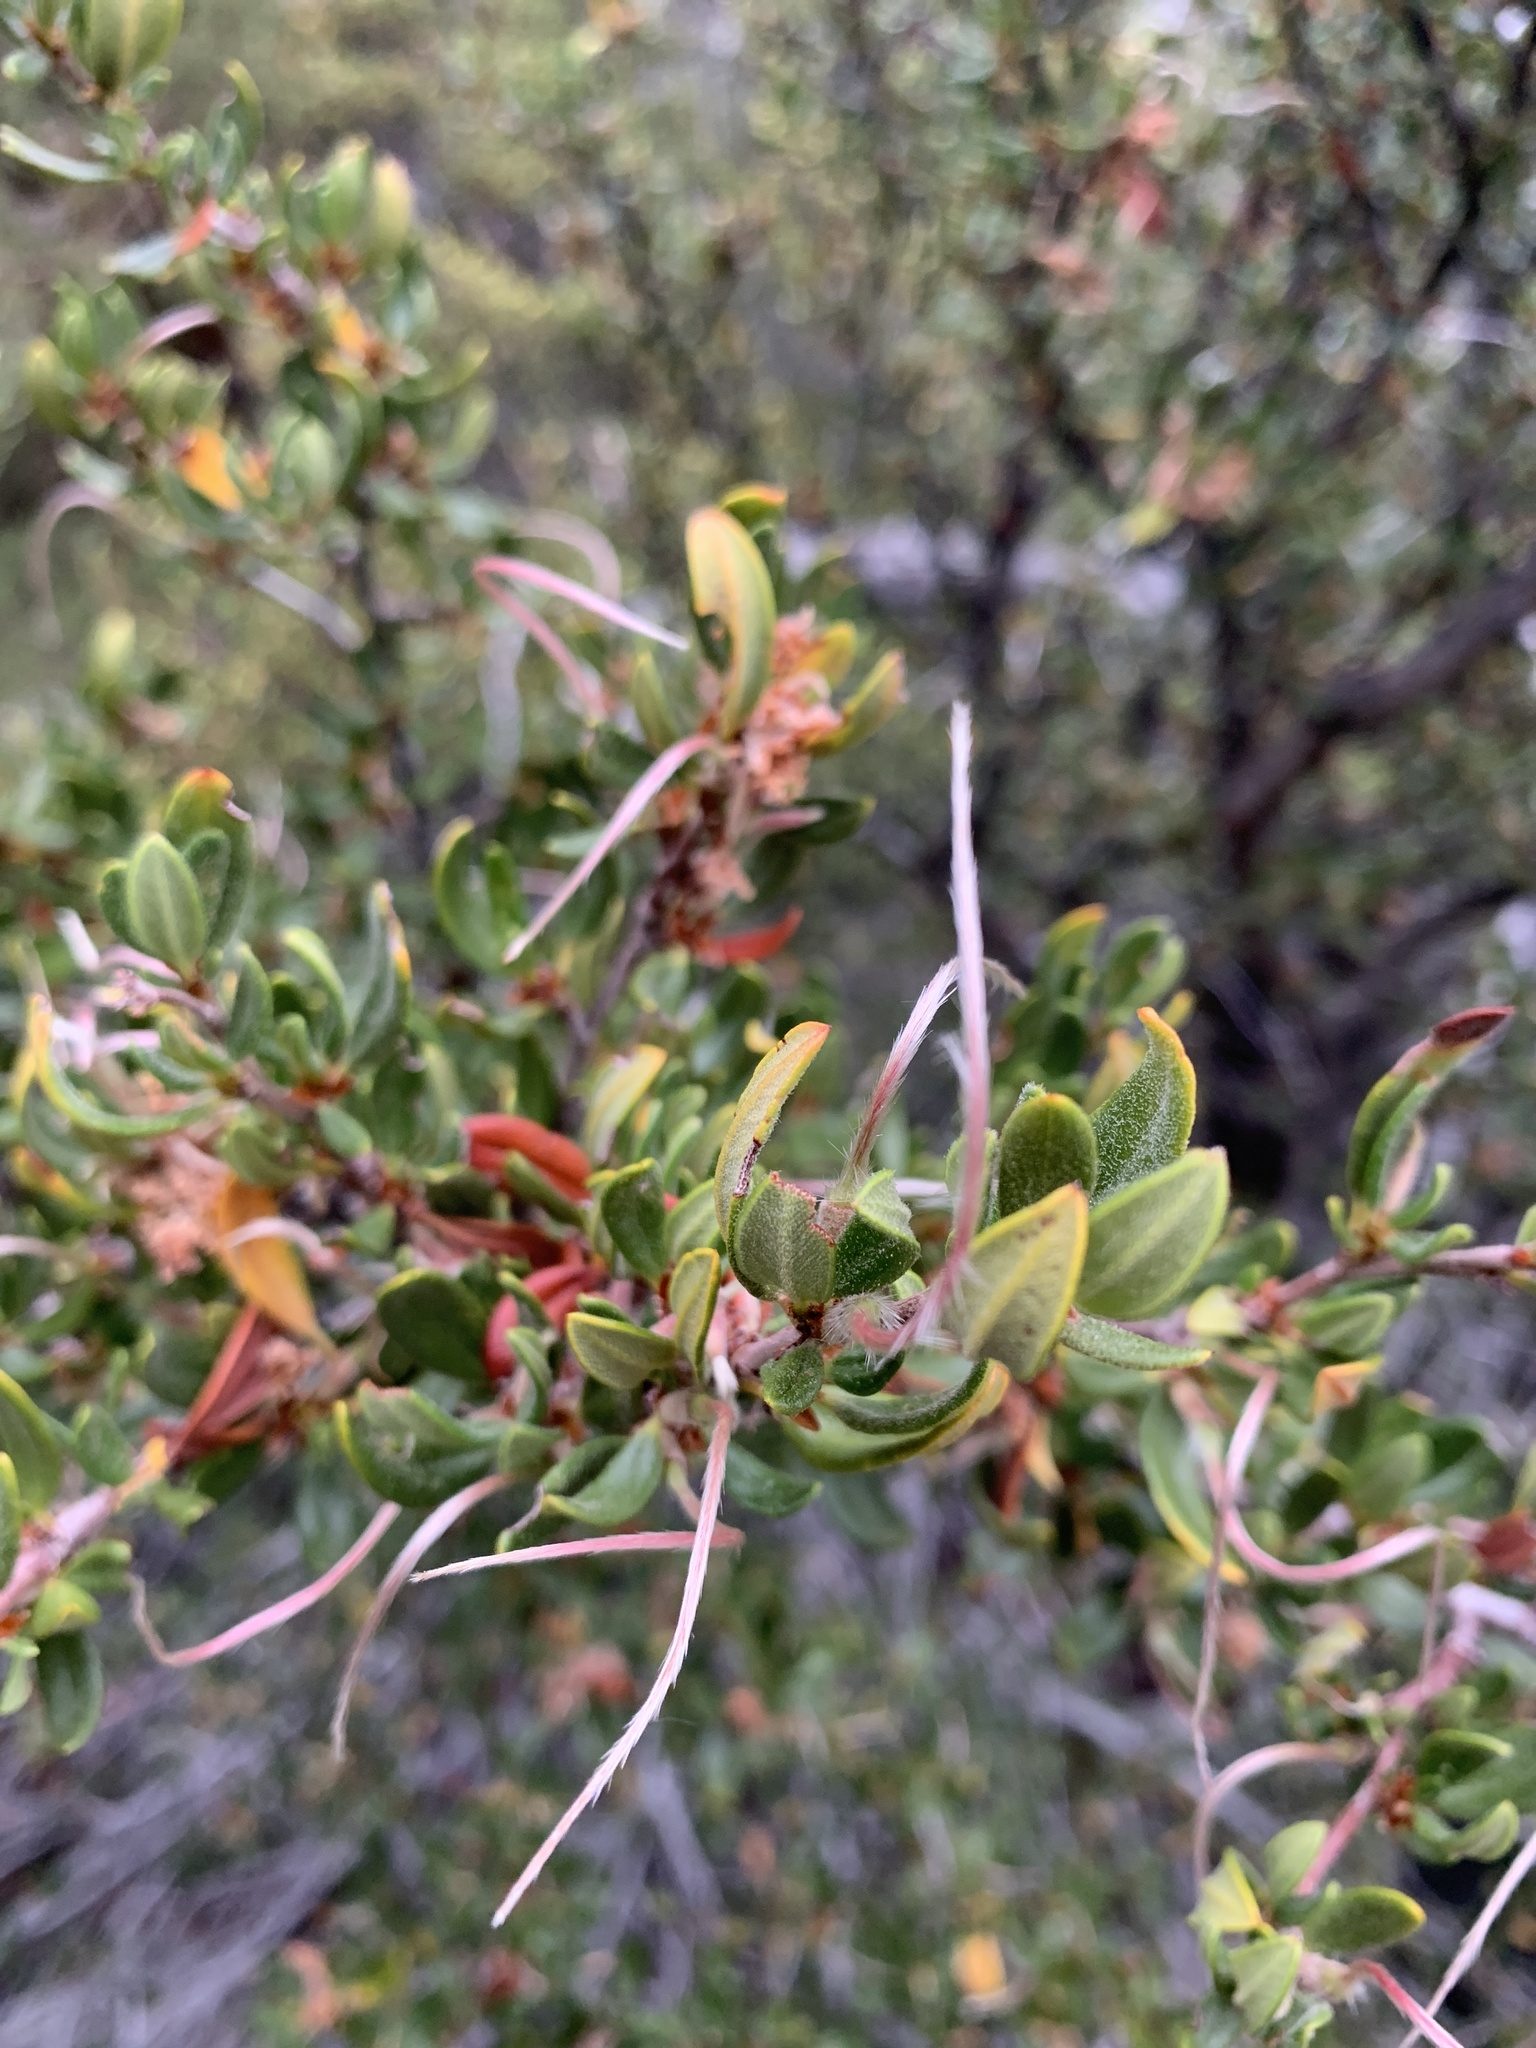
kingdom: Plantae
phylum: Tracheophyta
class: Magnoliopsida
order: Rosales
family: Rosaceae
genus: Cercocarpus
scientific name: Cercocarpus ledifolius
